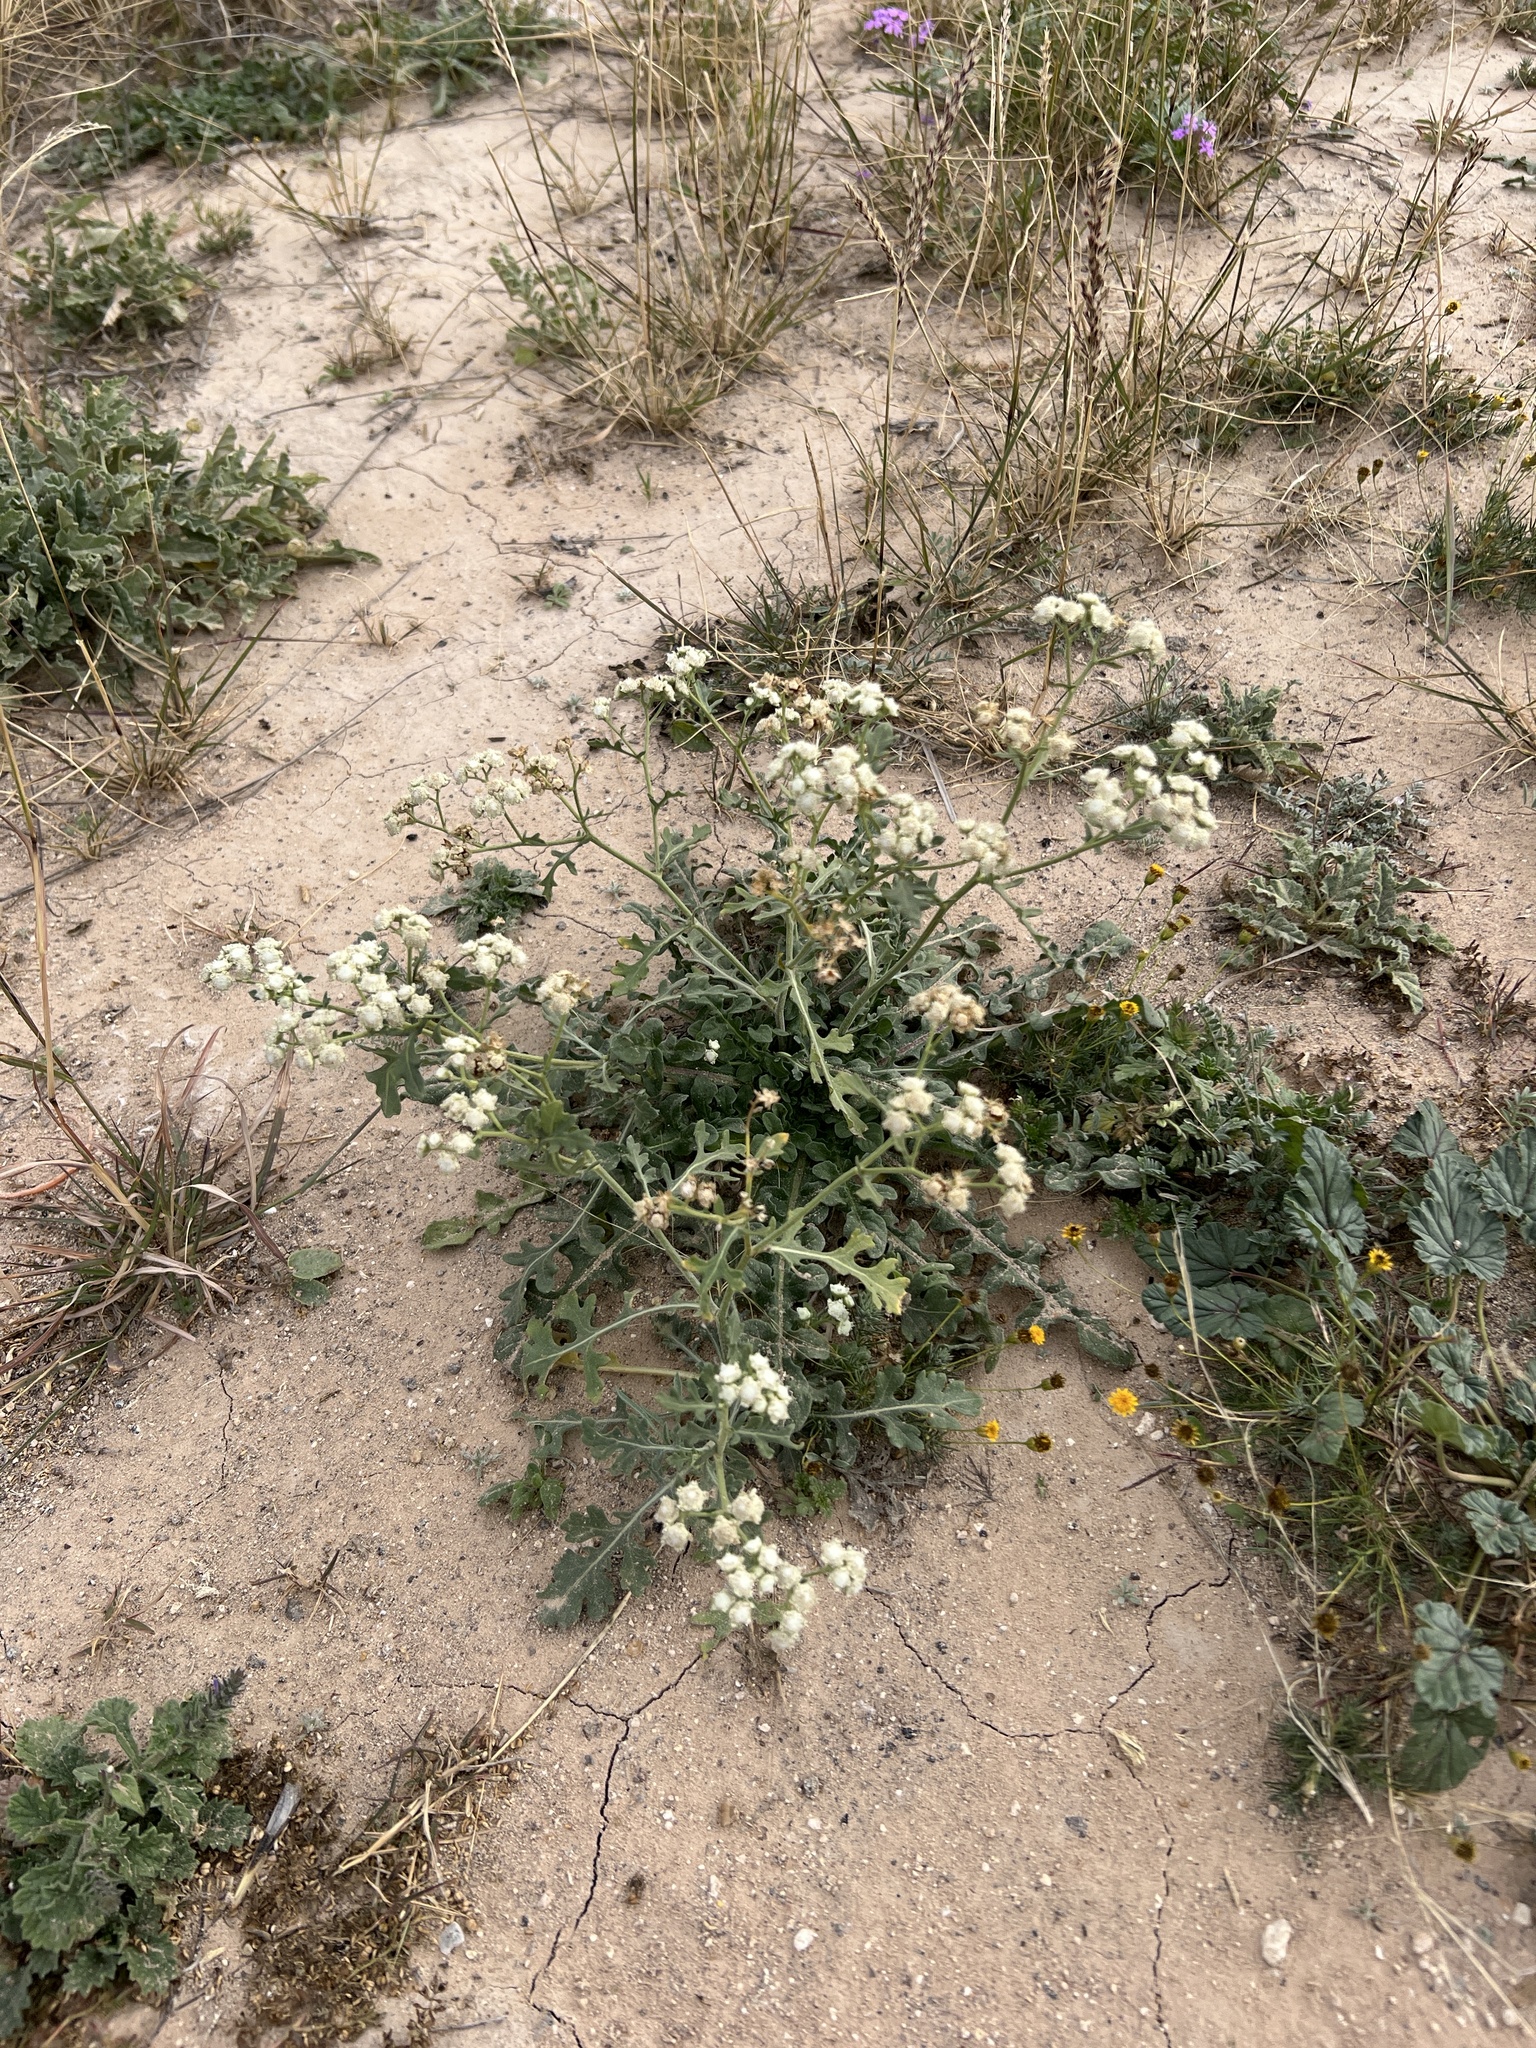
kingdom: Plantae
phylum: Tracheophyta
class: Magnoliopsida
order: Asterales
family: Asteraceae
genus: Parthenium
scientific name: Parthenium confertum
